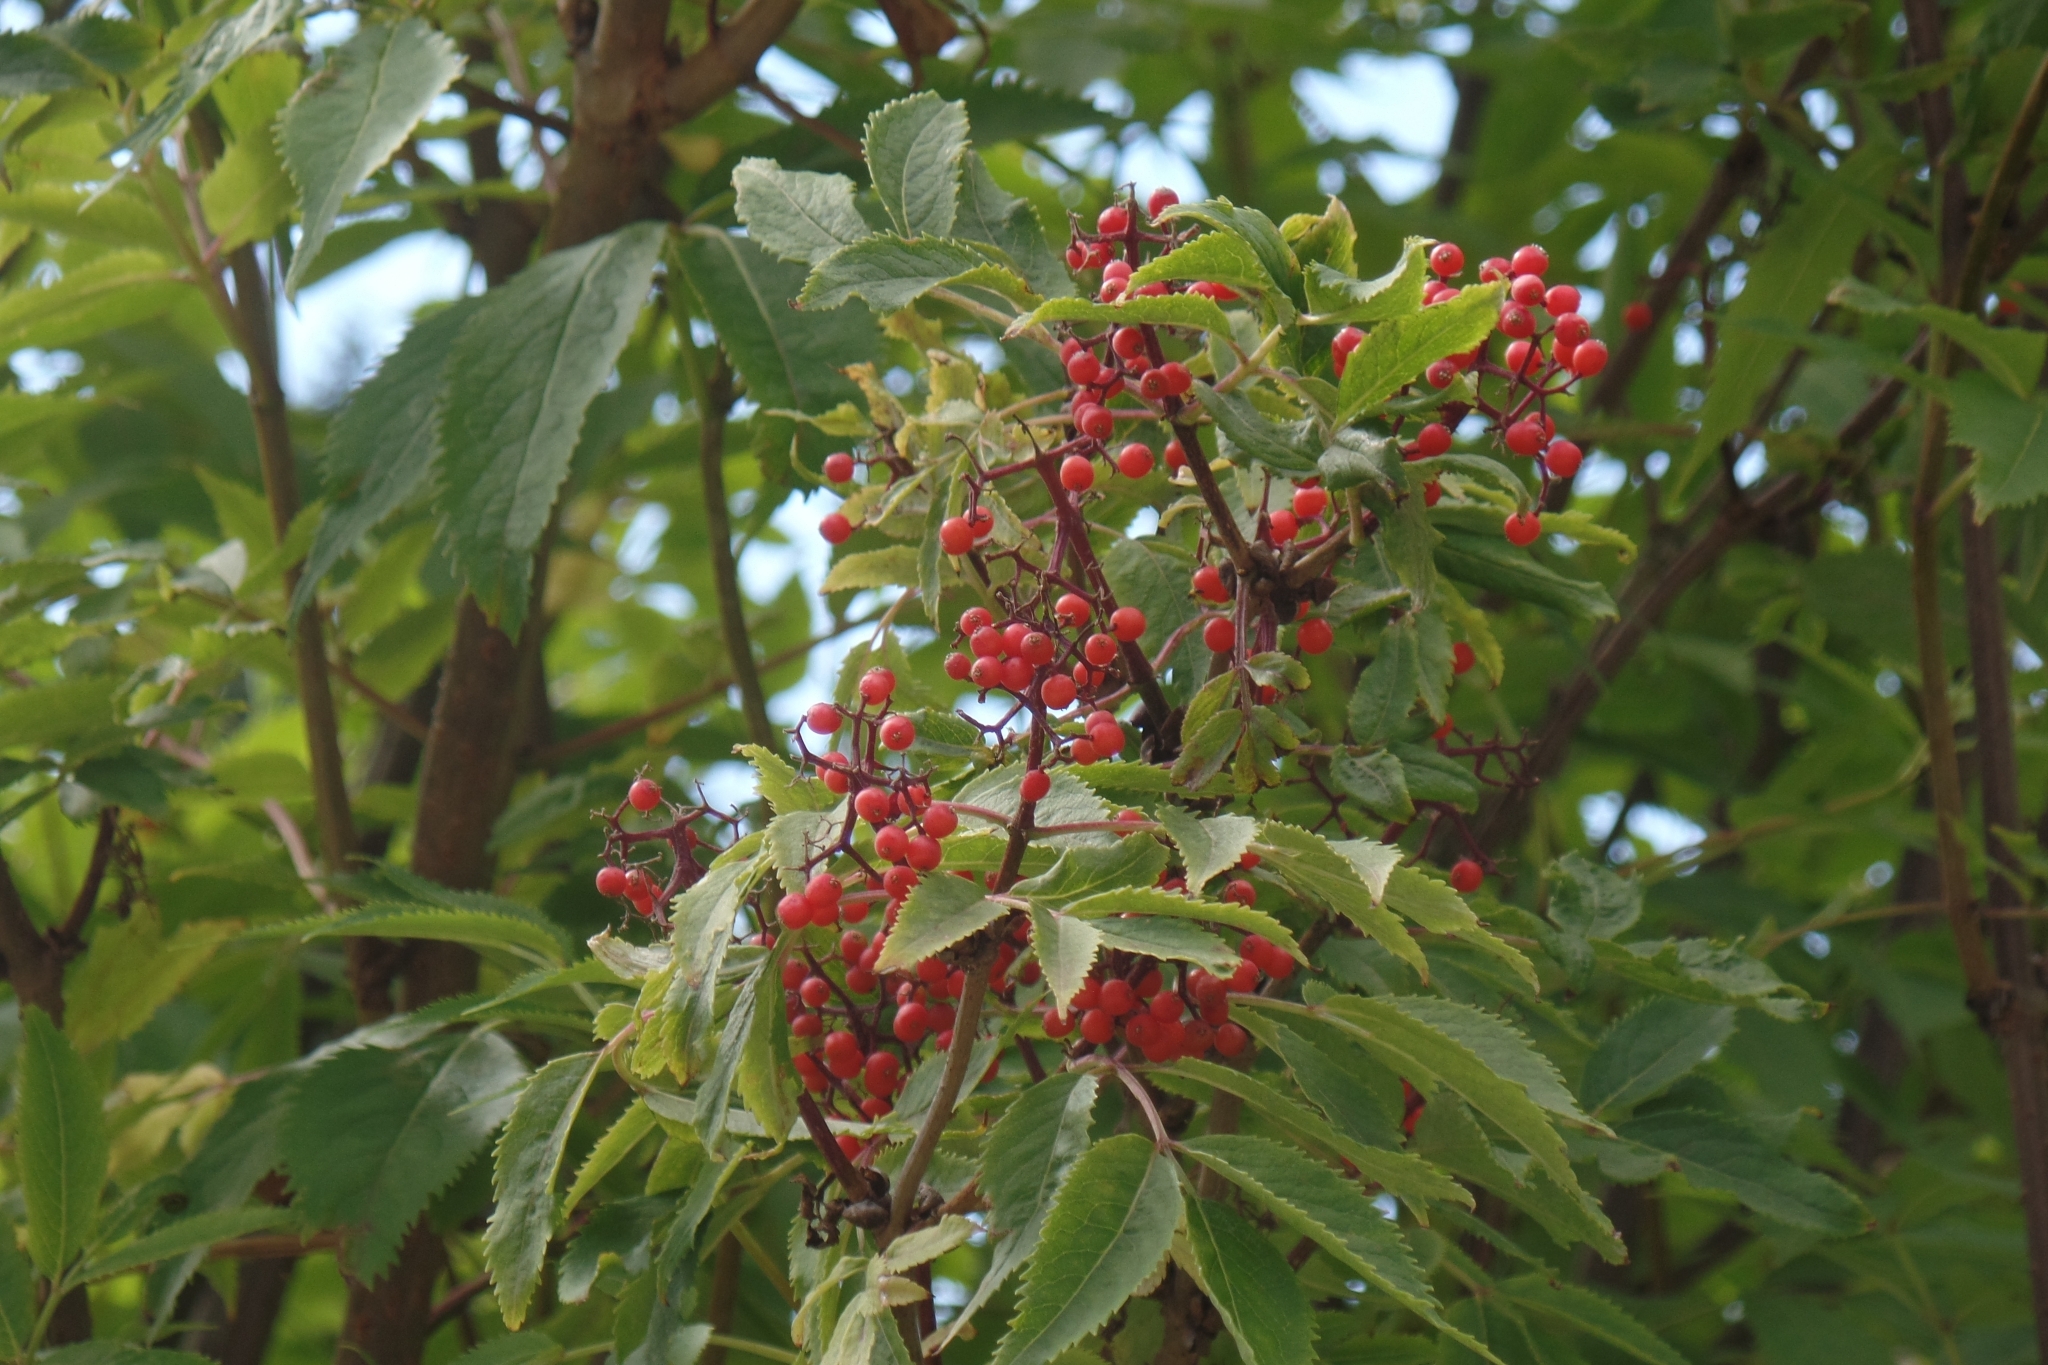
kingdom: Plantae
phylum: Tracheophyta
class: Magnoliopsida
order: Dipsacales
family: Viburnaceae
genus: Sambucus
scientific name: Sambucus racemosa
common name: Red-berried elder
